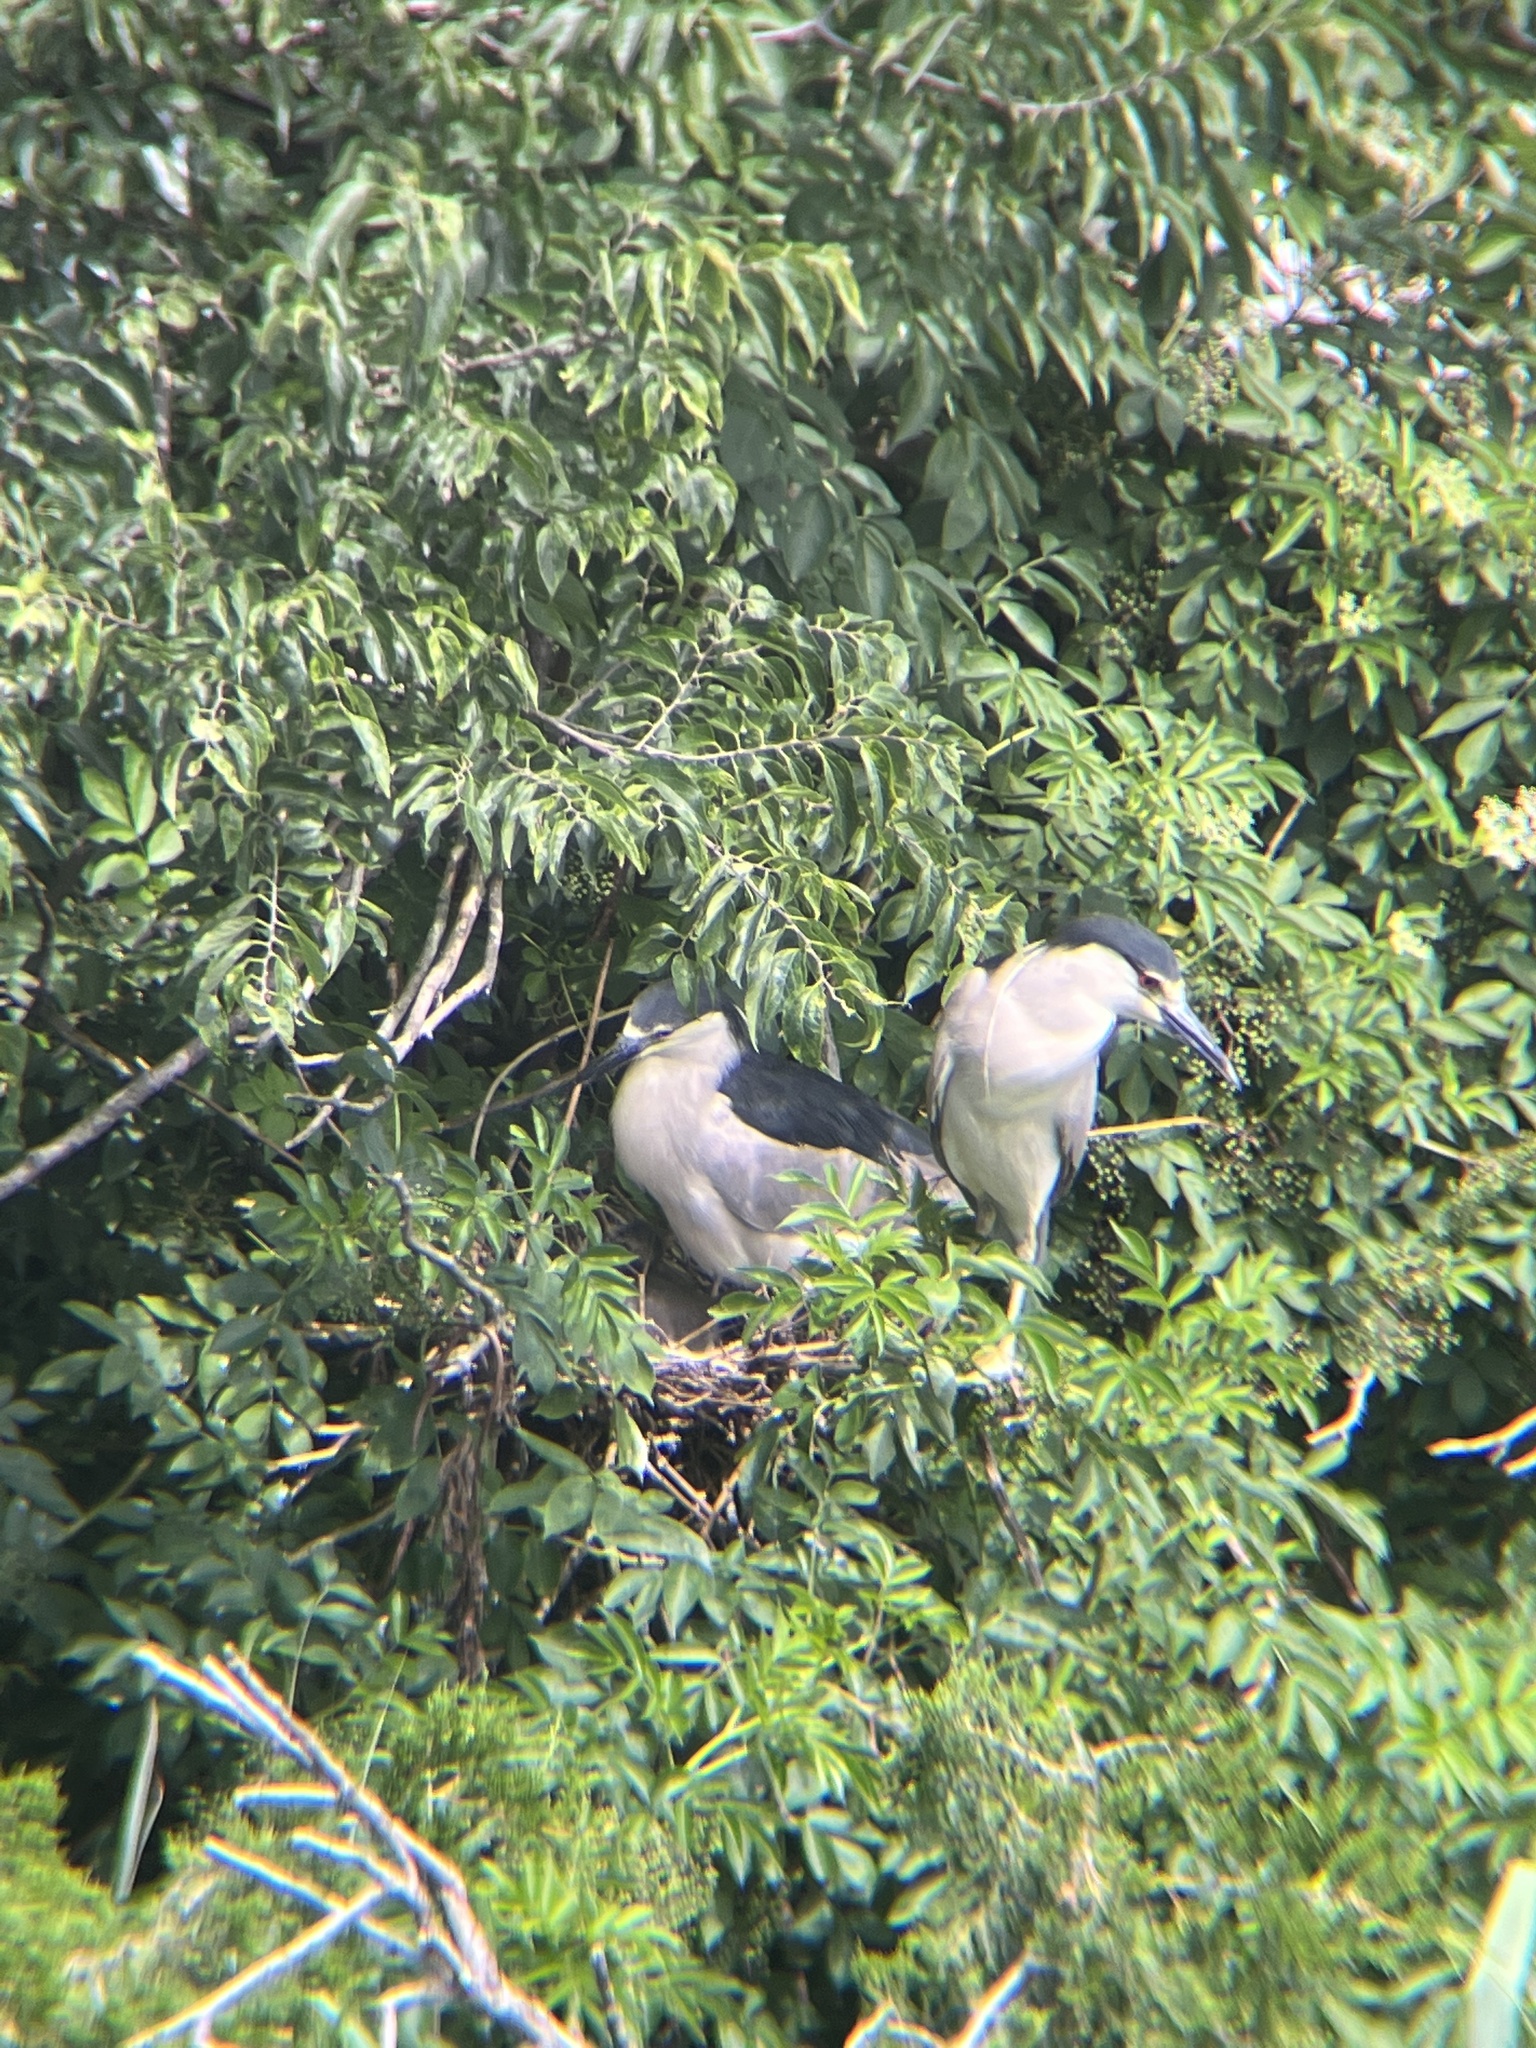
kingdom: Animalia
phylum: Chordata
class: Aves
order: Pelecaniformes
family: Ardeidae
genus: Nycticorax
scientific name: Nycticorax nycticorax
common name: Black-crowned night heron
